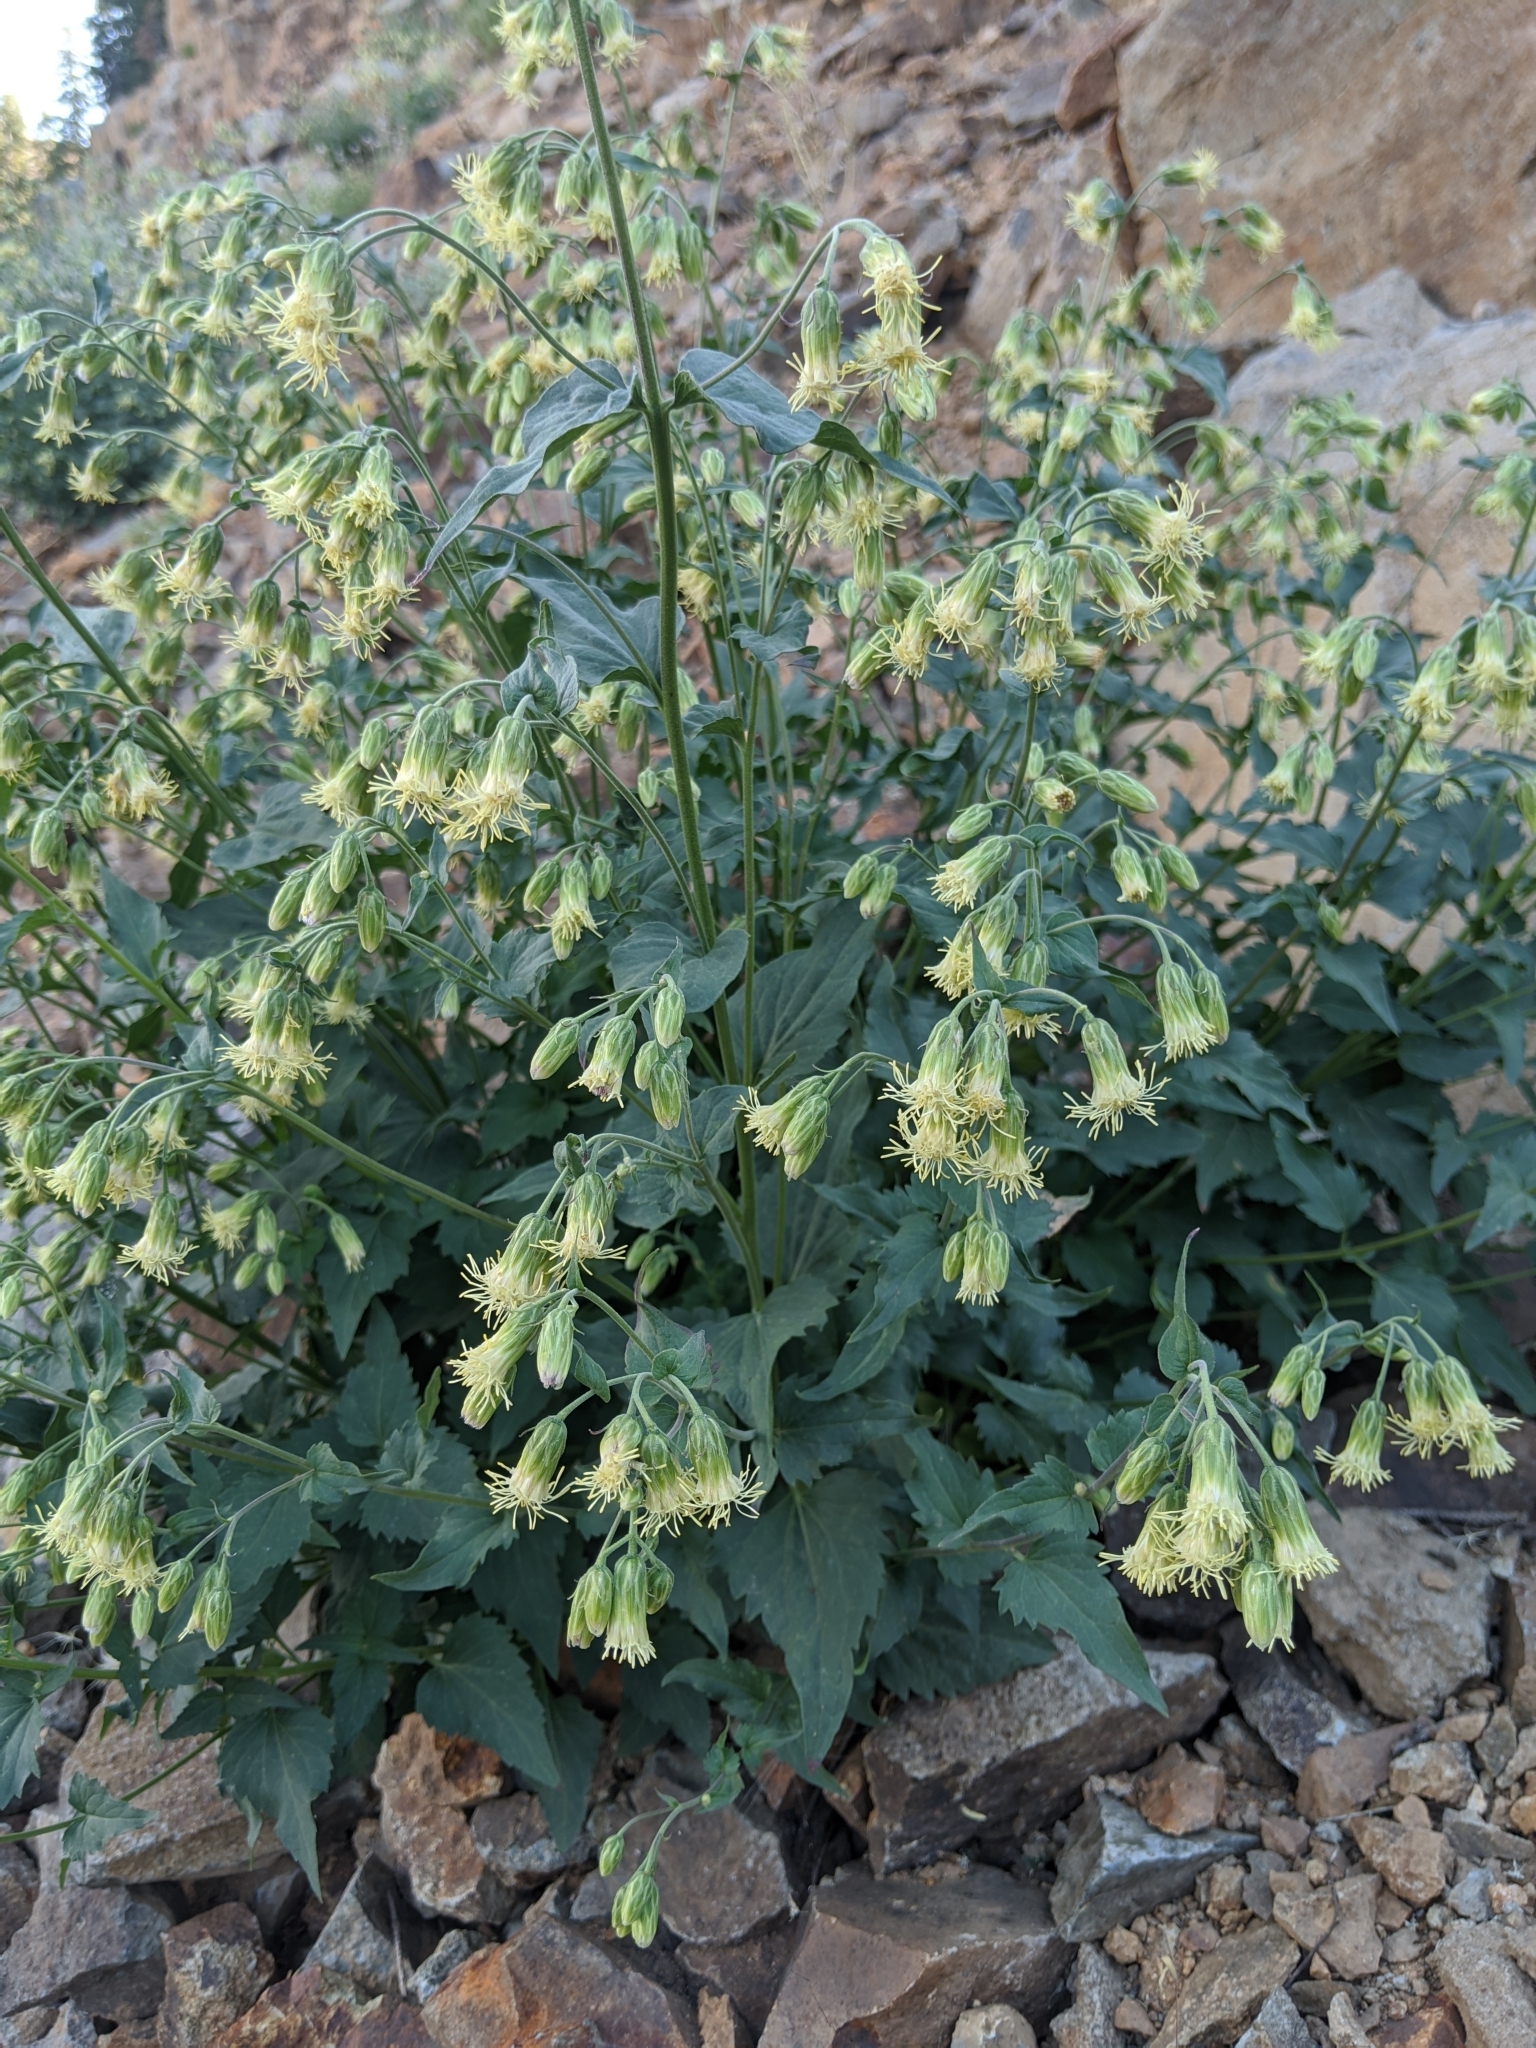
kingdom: Plantae
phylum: Tracheophyta
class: Magnoliopsida
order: Asterales
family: Asteraceae
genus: Brickellia
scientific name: Brickellia grandiflora
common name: Large-flowered brickellia
